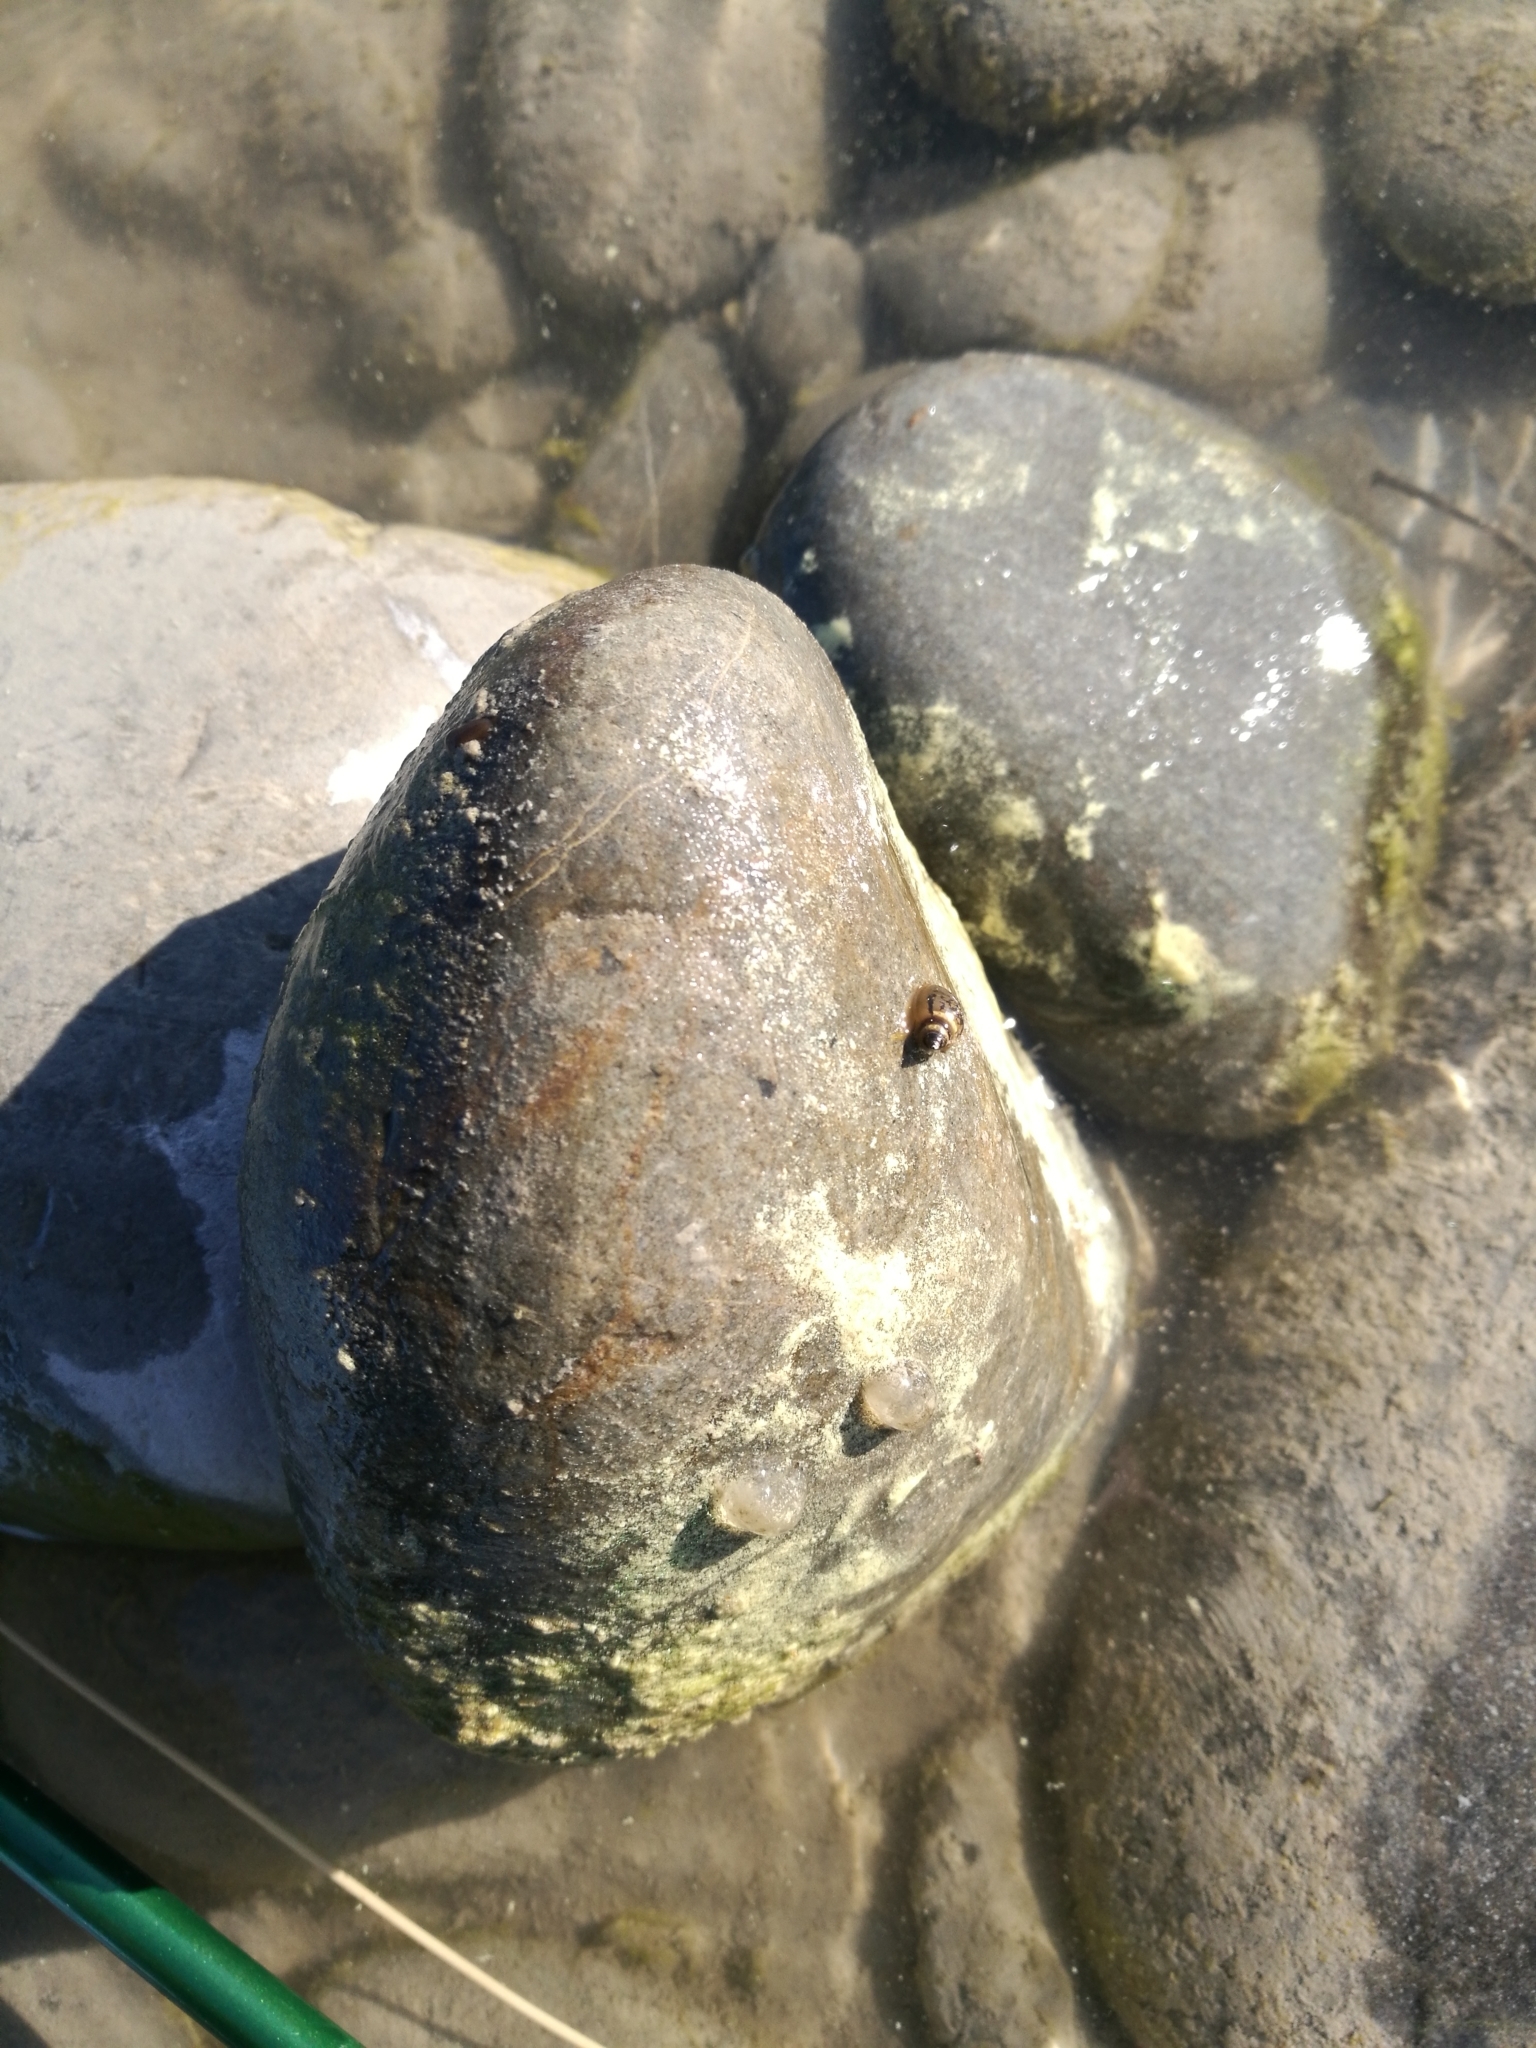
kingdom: Animalia
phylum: Mollusca
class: Gastropoda
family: Physidae
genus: Physella
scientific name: Physella acuta
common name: European physa
